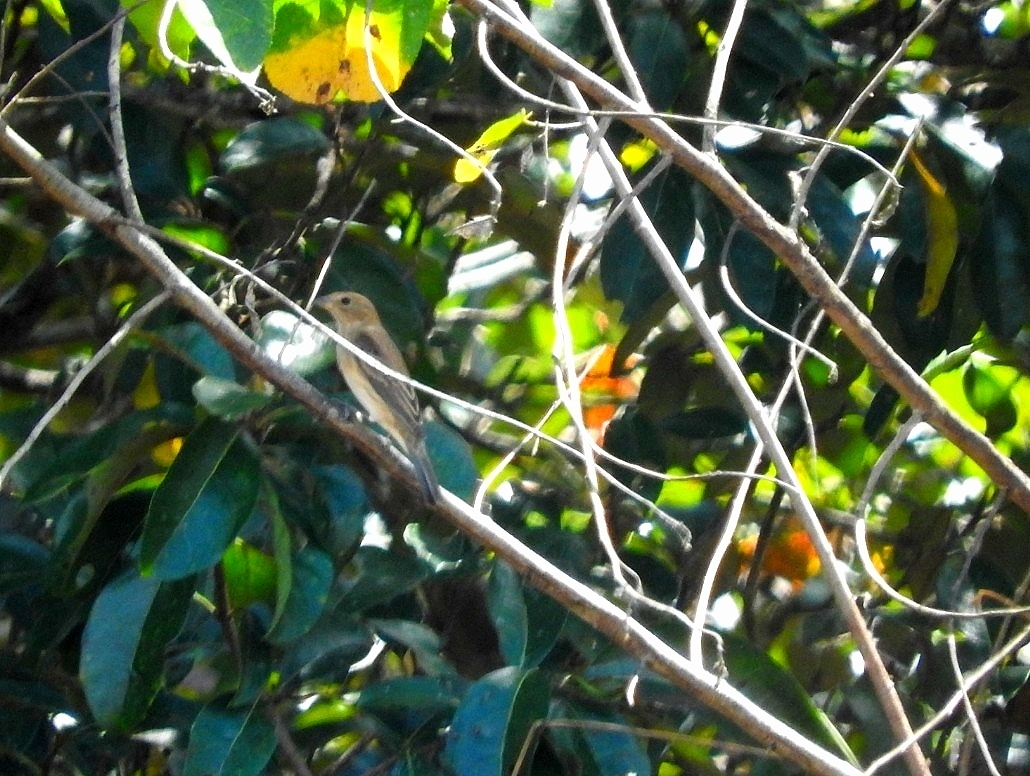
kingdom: Animalia
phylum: Chordata
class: Aves
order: Passeriformes
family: Cardinalidae
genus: Passerina
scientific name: Passerina cyanea
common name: Indigo bunting
